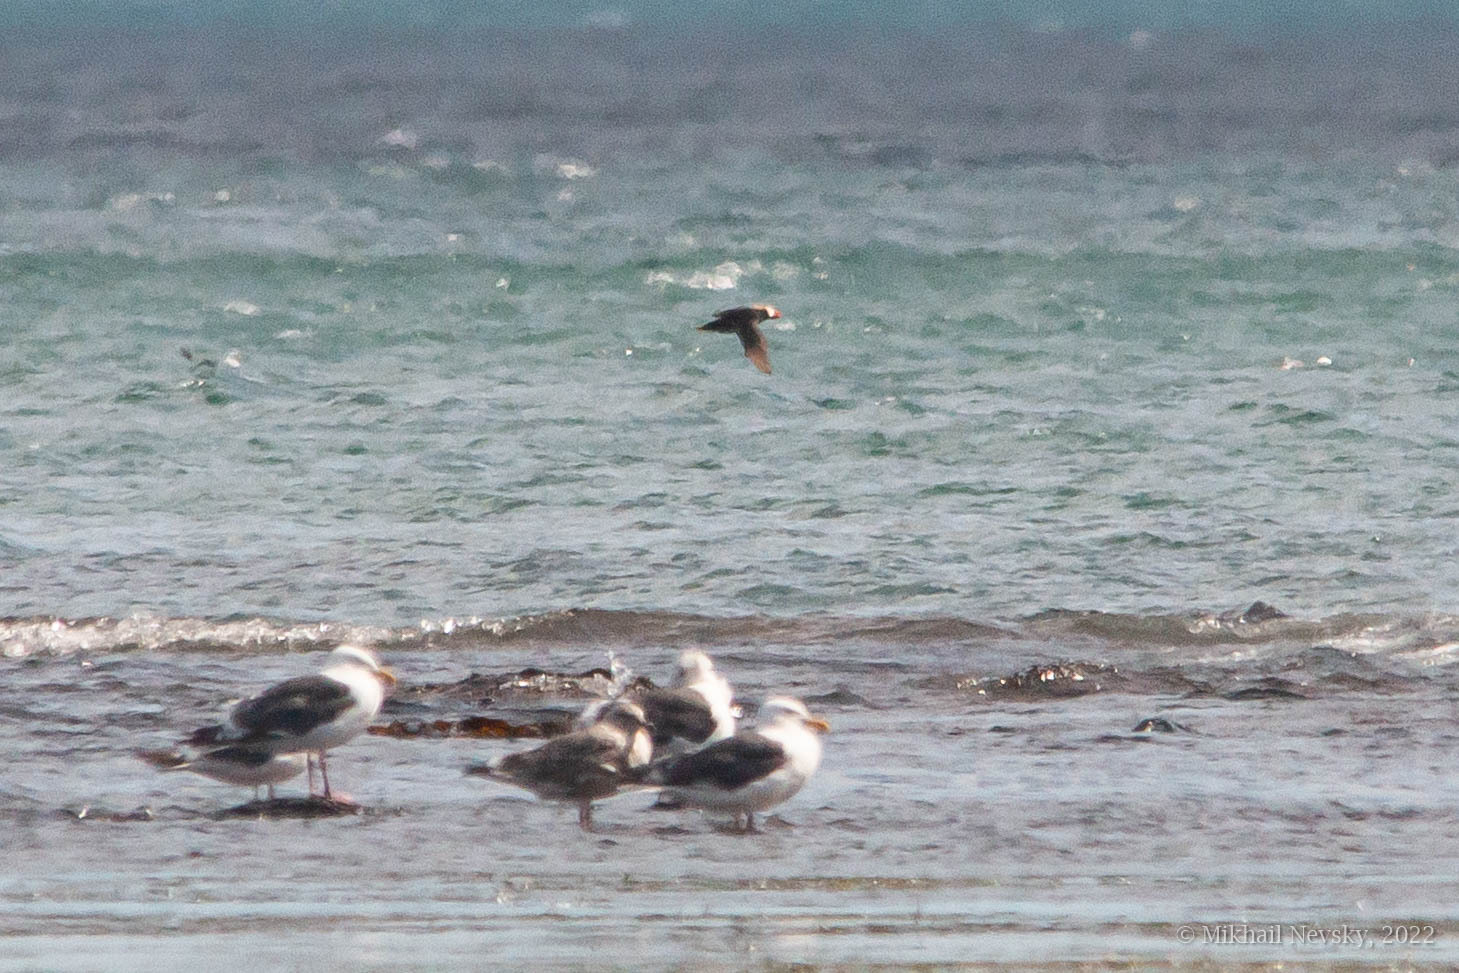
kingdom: Animalia
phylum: Chordata
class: Aves
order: Charadriiformes
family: Alcidae
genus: Fratercula
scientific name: Fratercula cirrhata
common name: Tufted puffin
